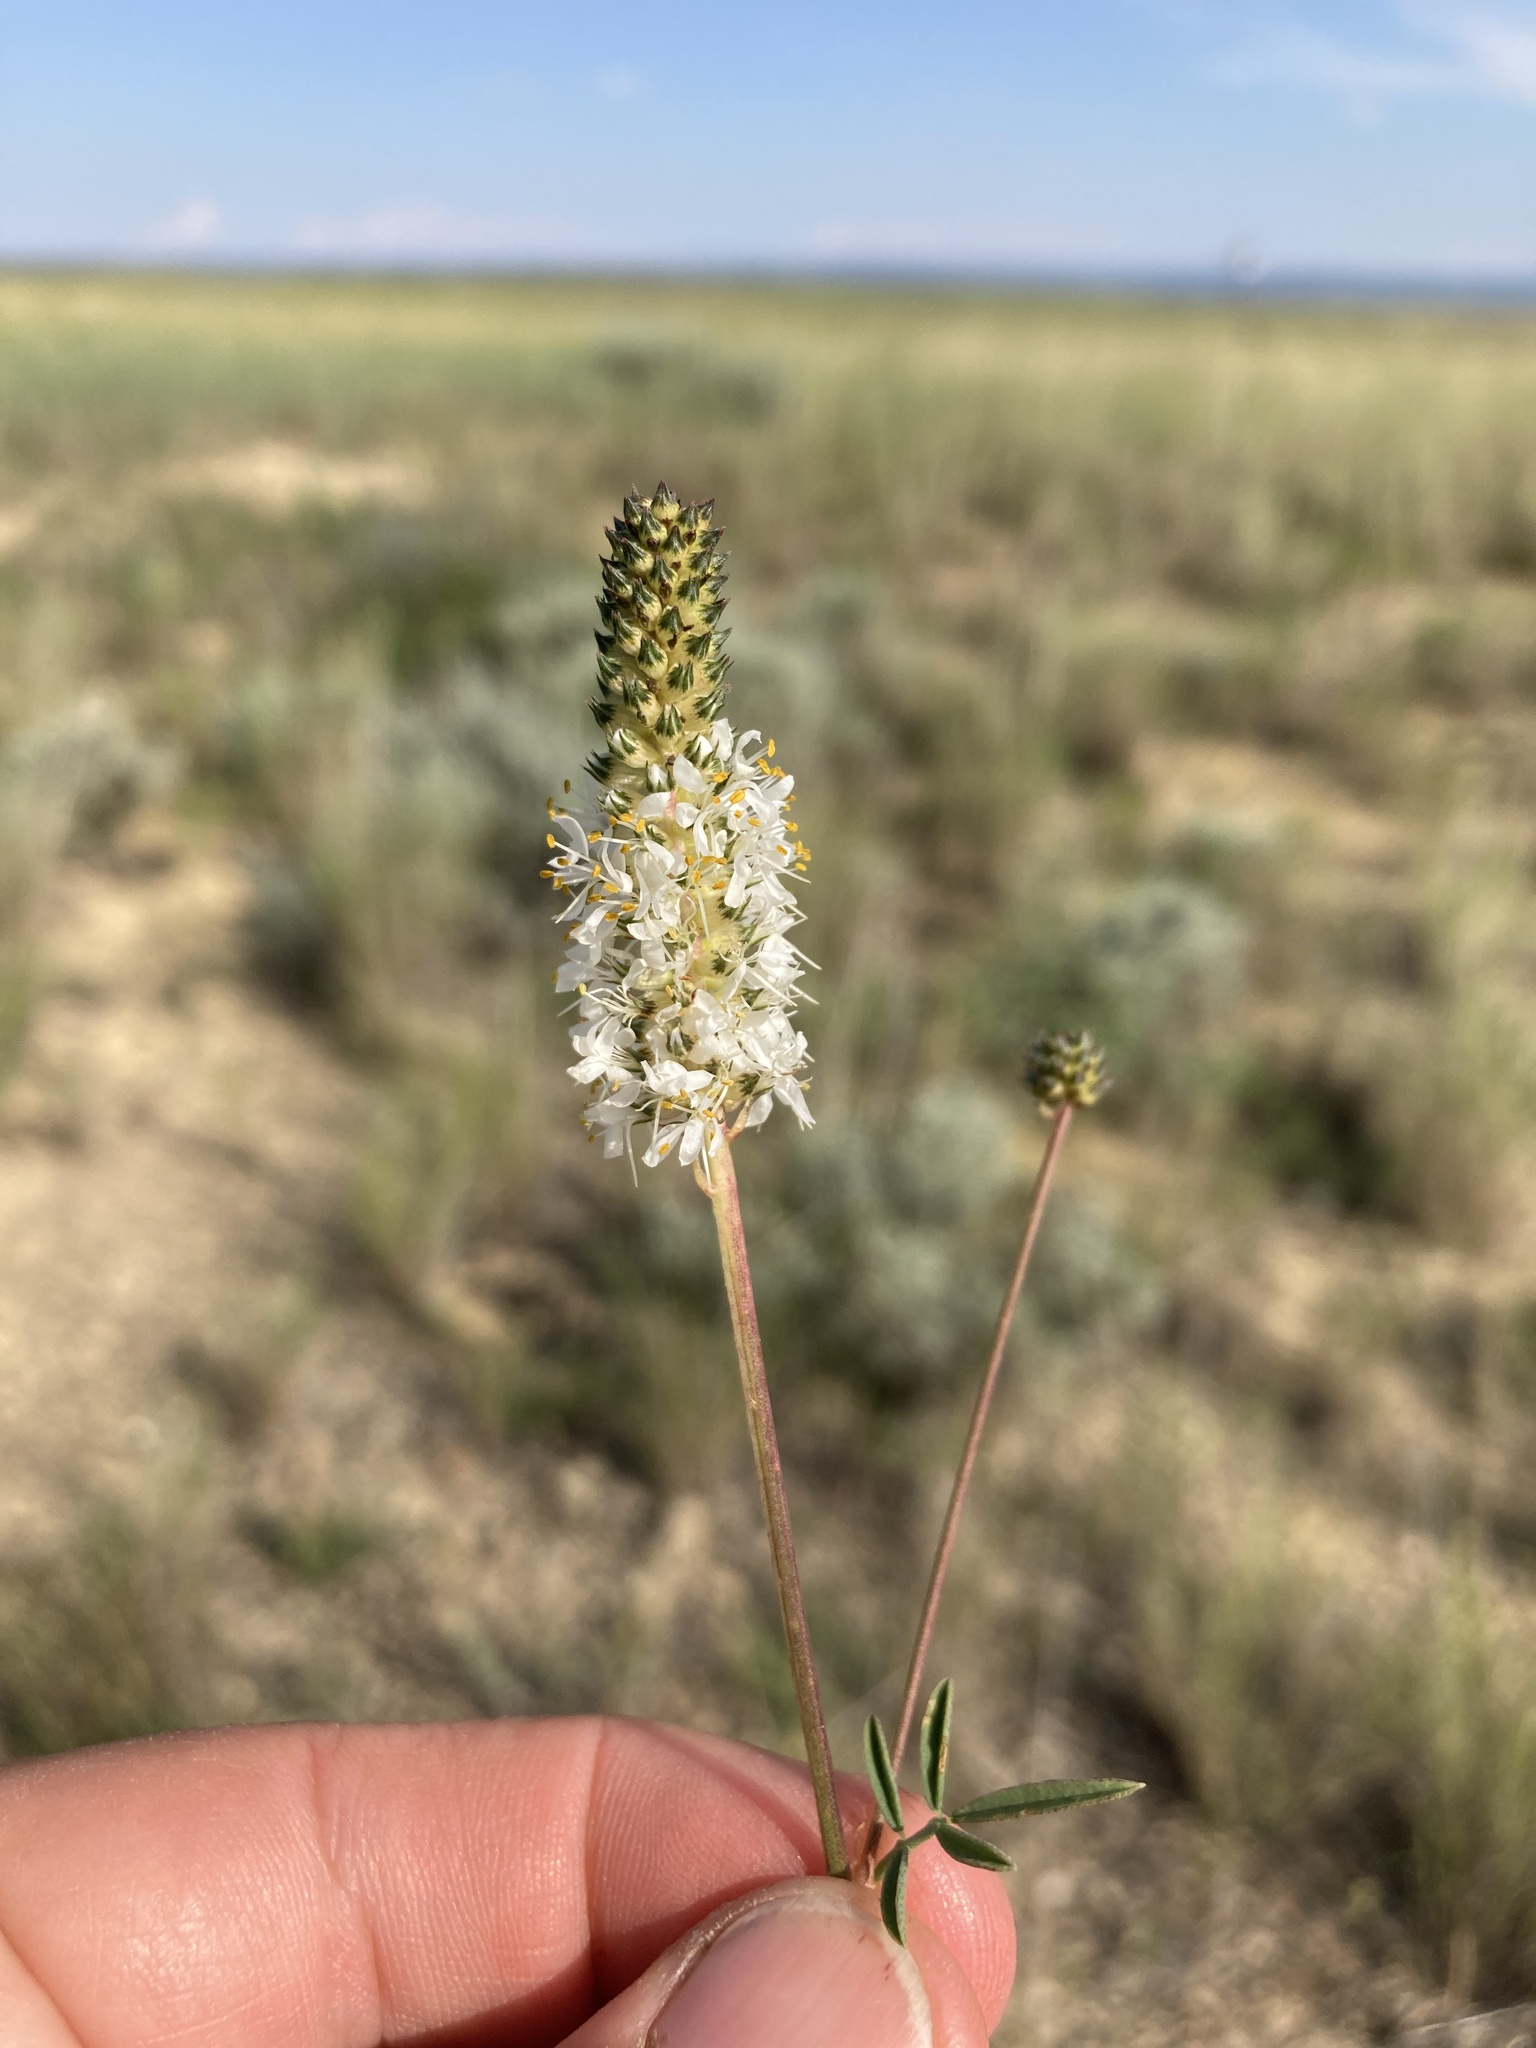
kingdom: Plantae
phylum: Tracheophyta
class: Magnoliopsida
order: Fabales
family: Fabaceae
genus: Dalea
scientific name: Dalea candida
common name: White prairie-clover
